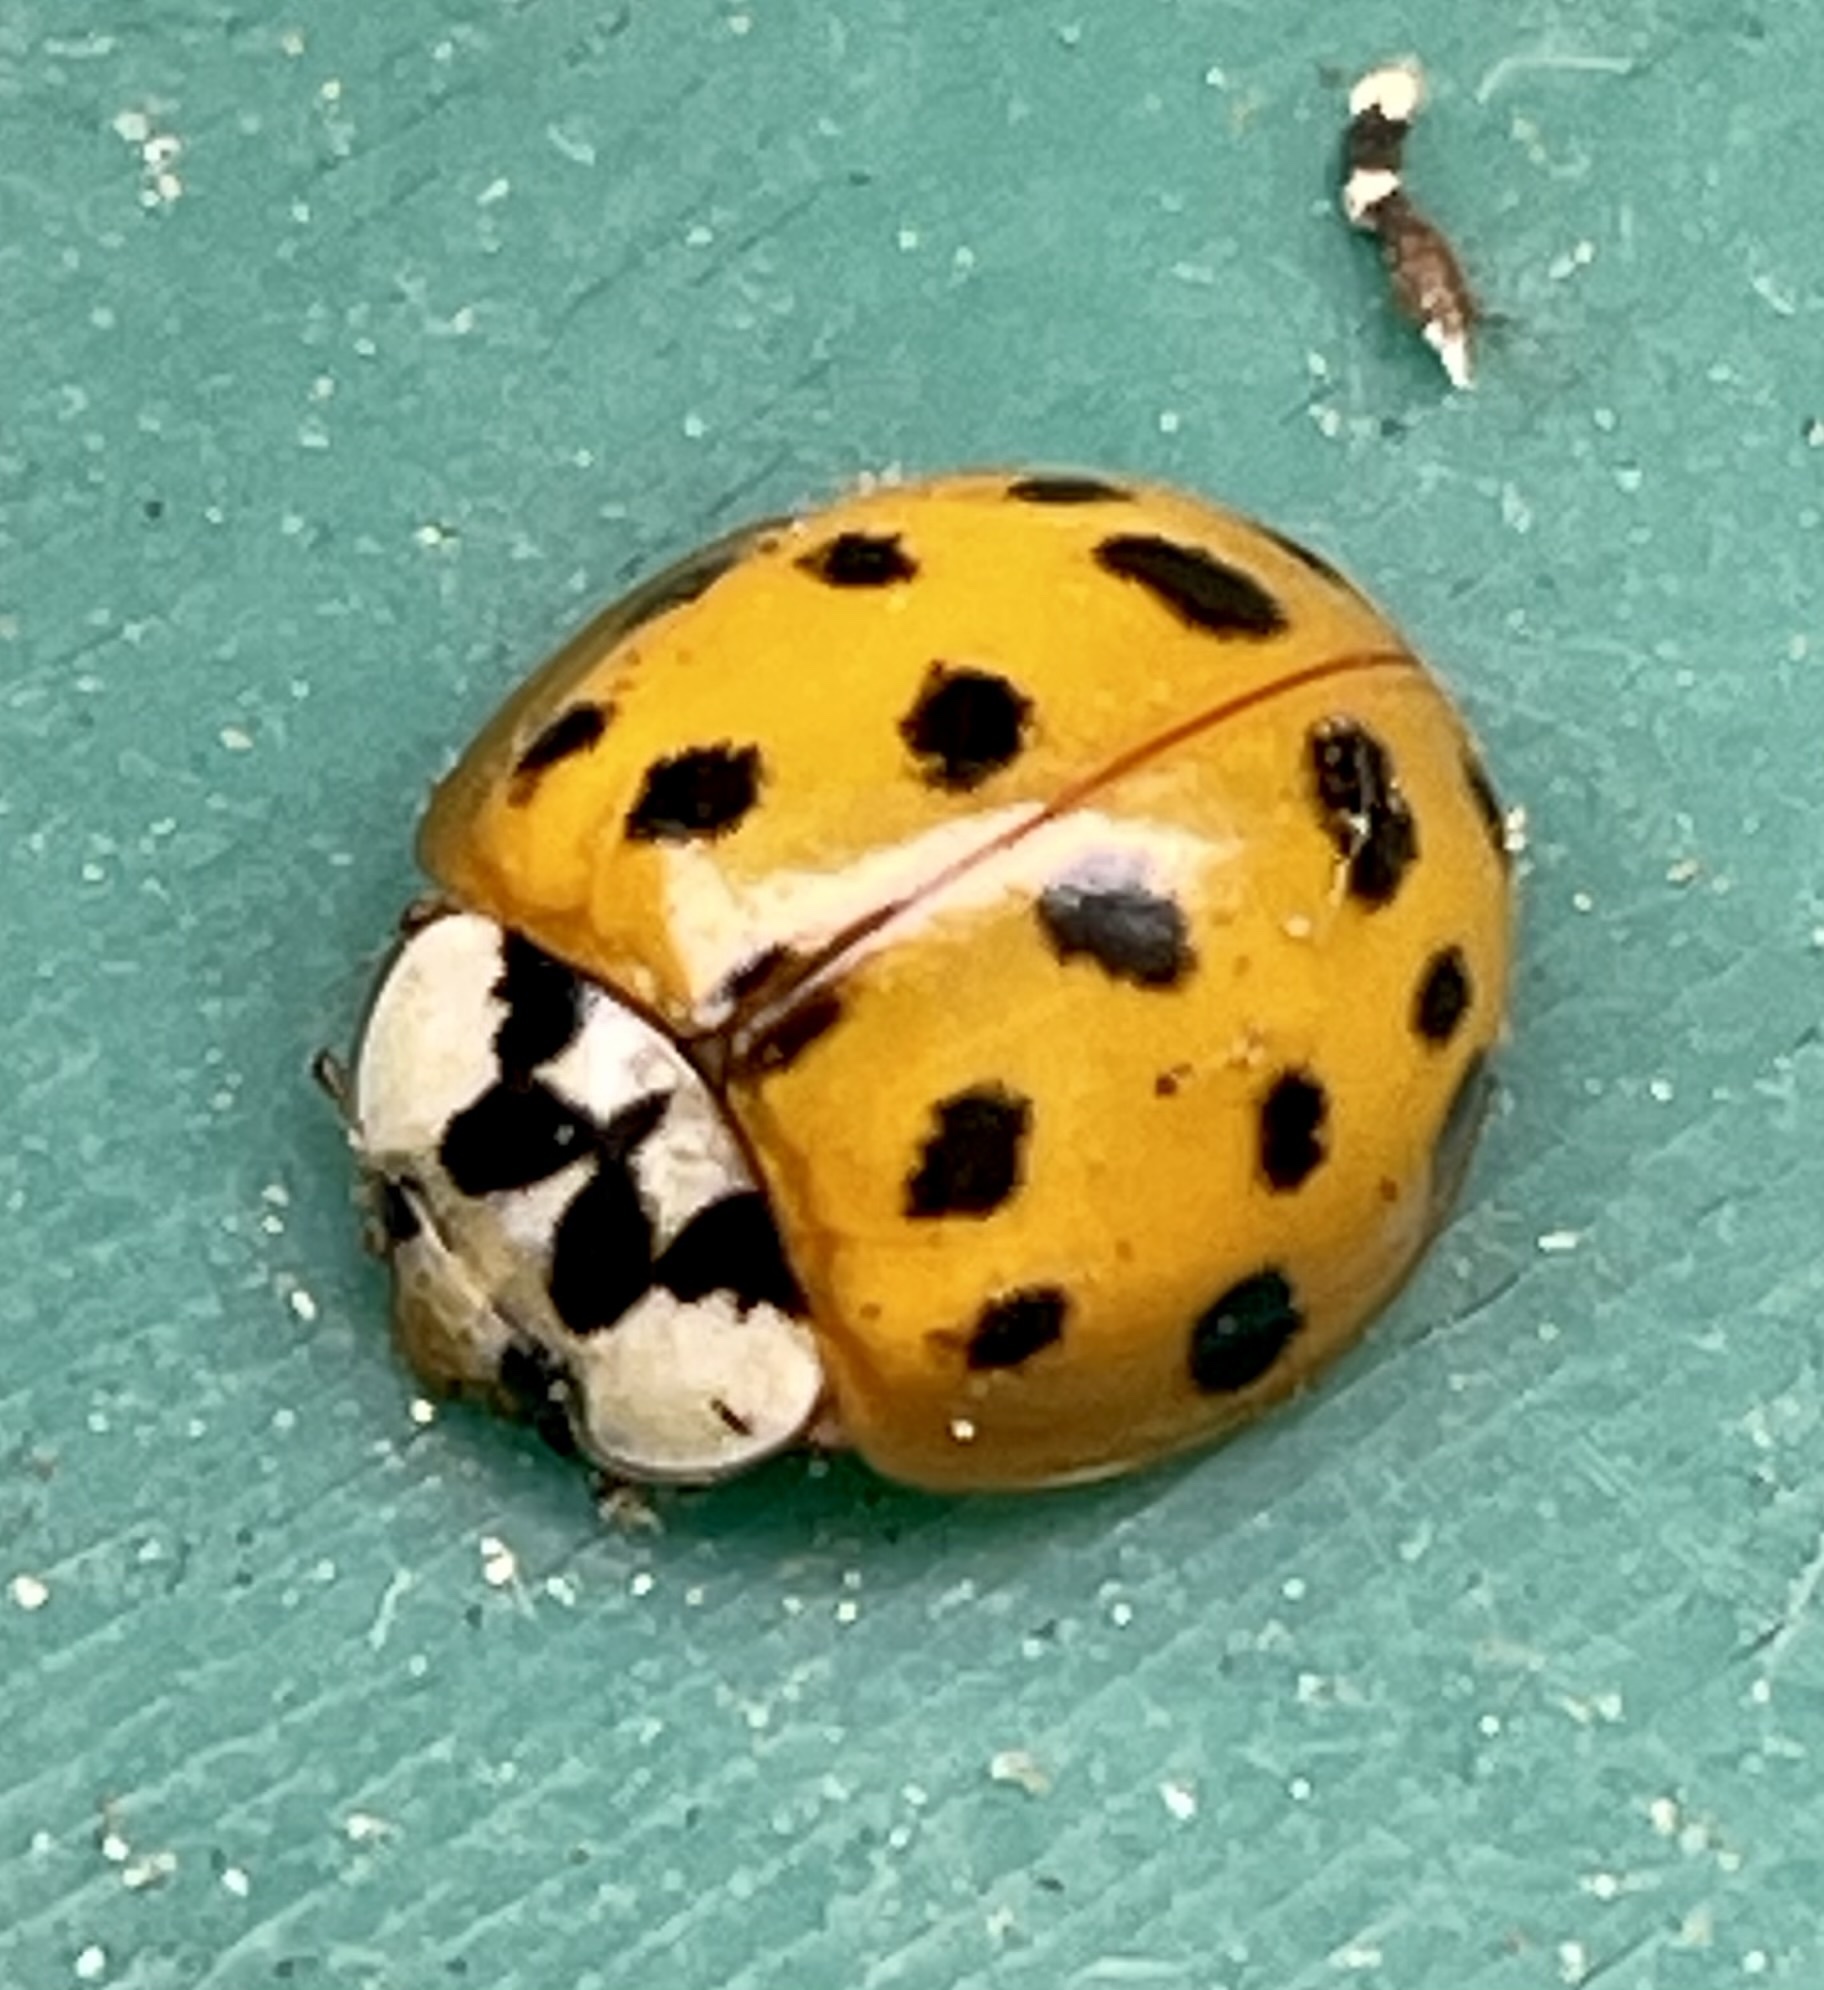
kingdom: Animalia
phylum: Arthropoda
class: Insecta
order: Coleoptera
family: Coccinellidae
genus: Harmonia
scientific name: Harmonia axyridis
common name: Harlequin ladybird
